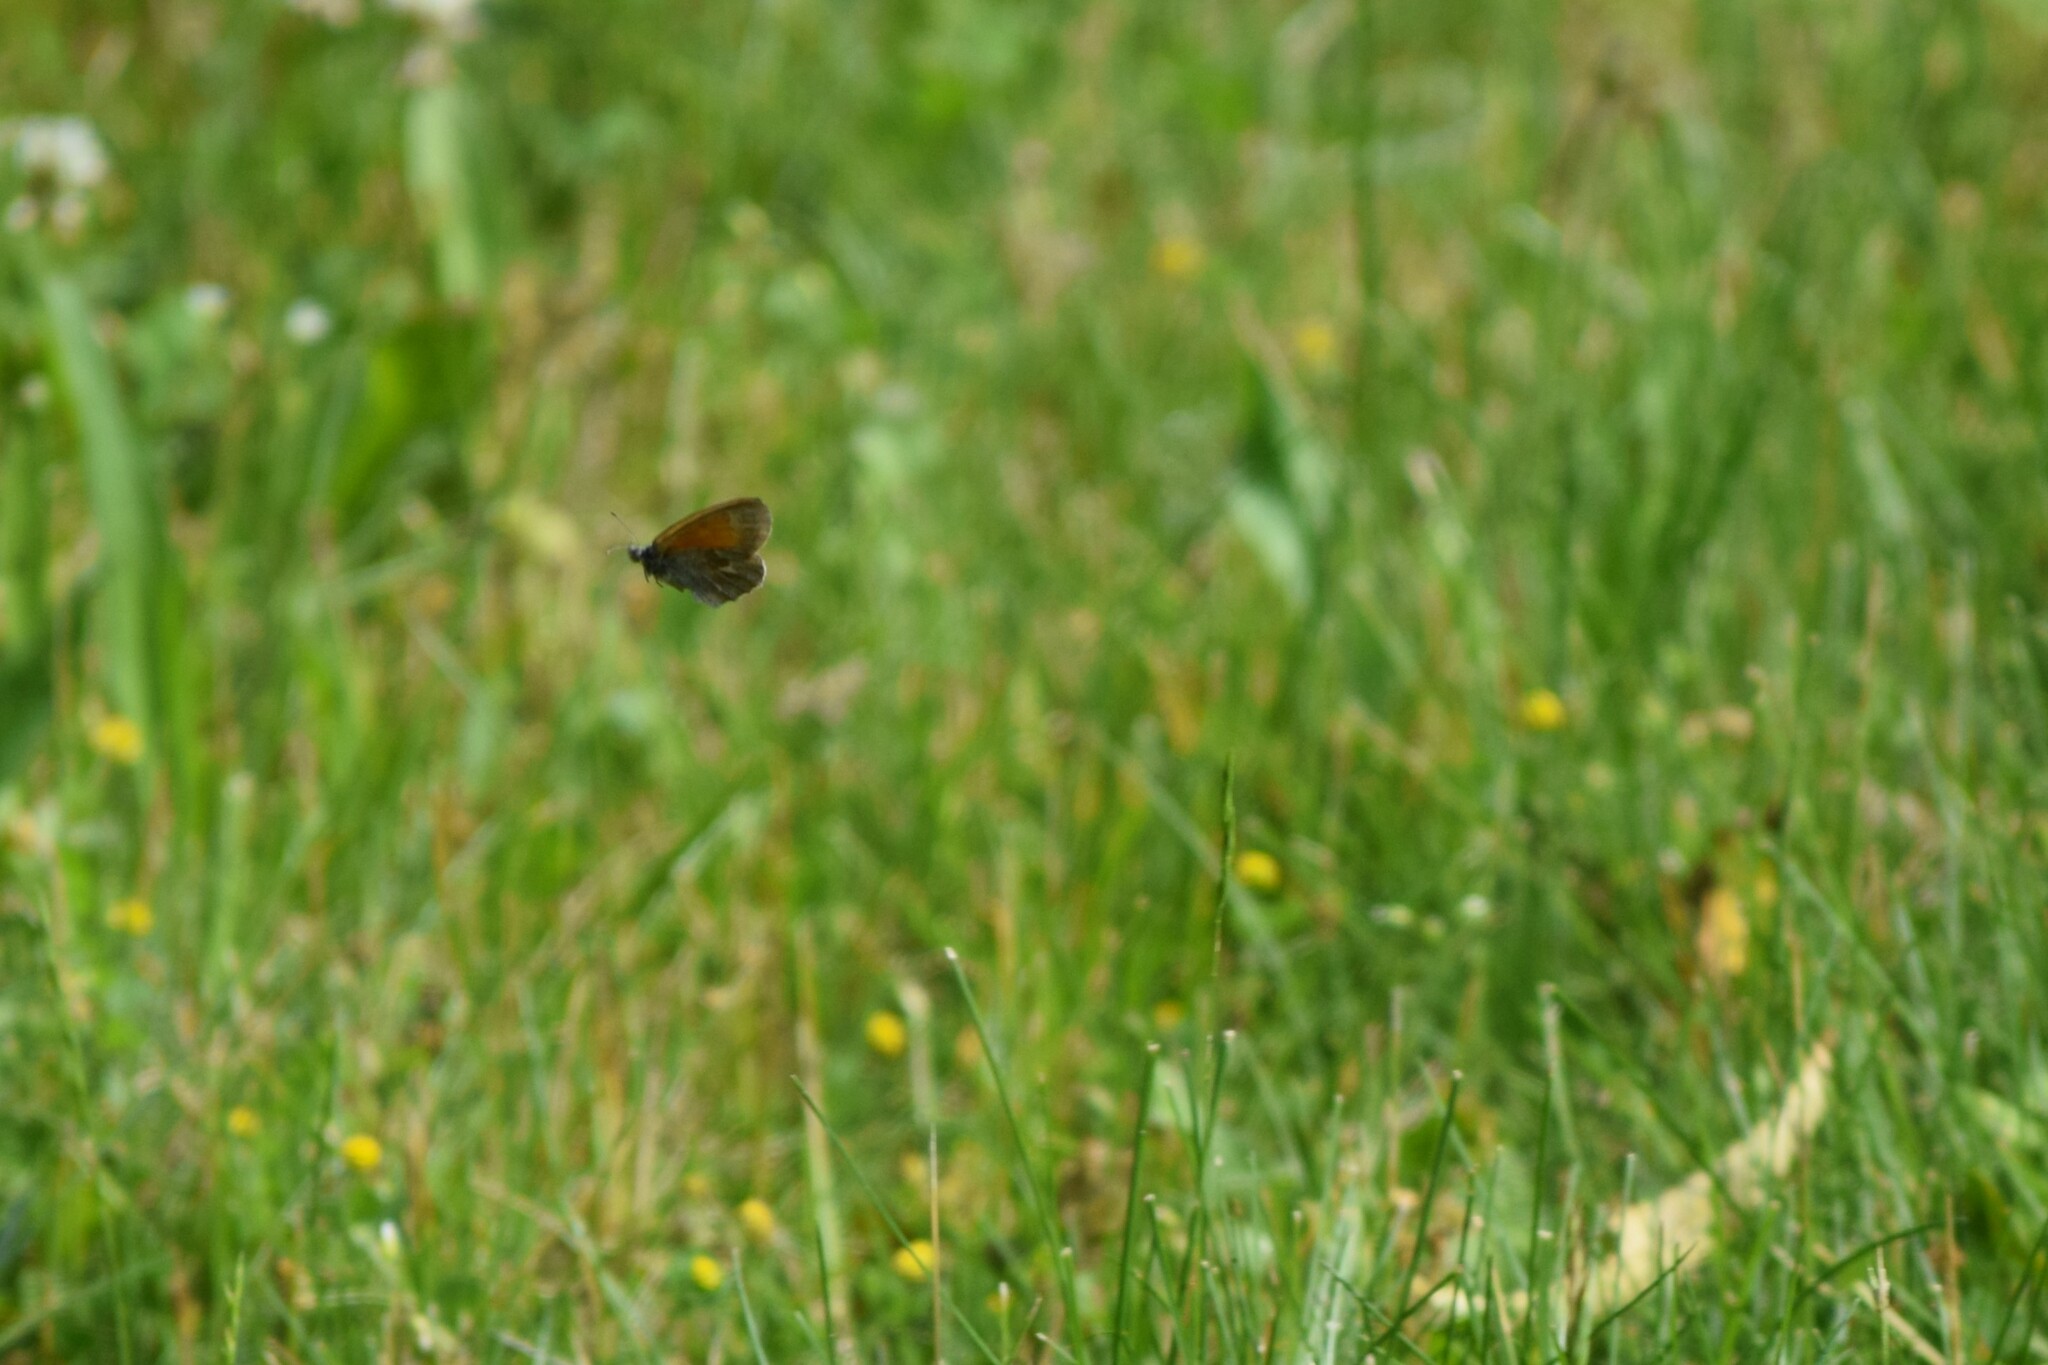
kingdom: Animalia
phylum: Arthropoda
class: Insecta
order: Lepidoptera
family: Nymphalidae
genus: Coenonympha
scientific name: Coenonympha california
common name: Common ringlet
